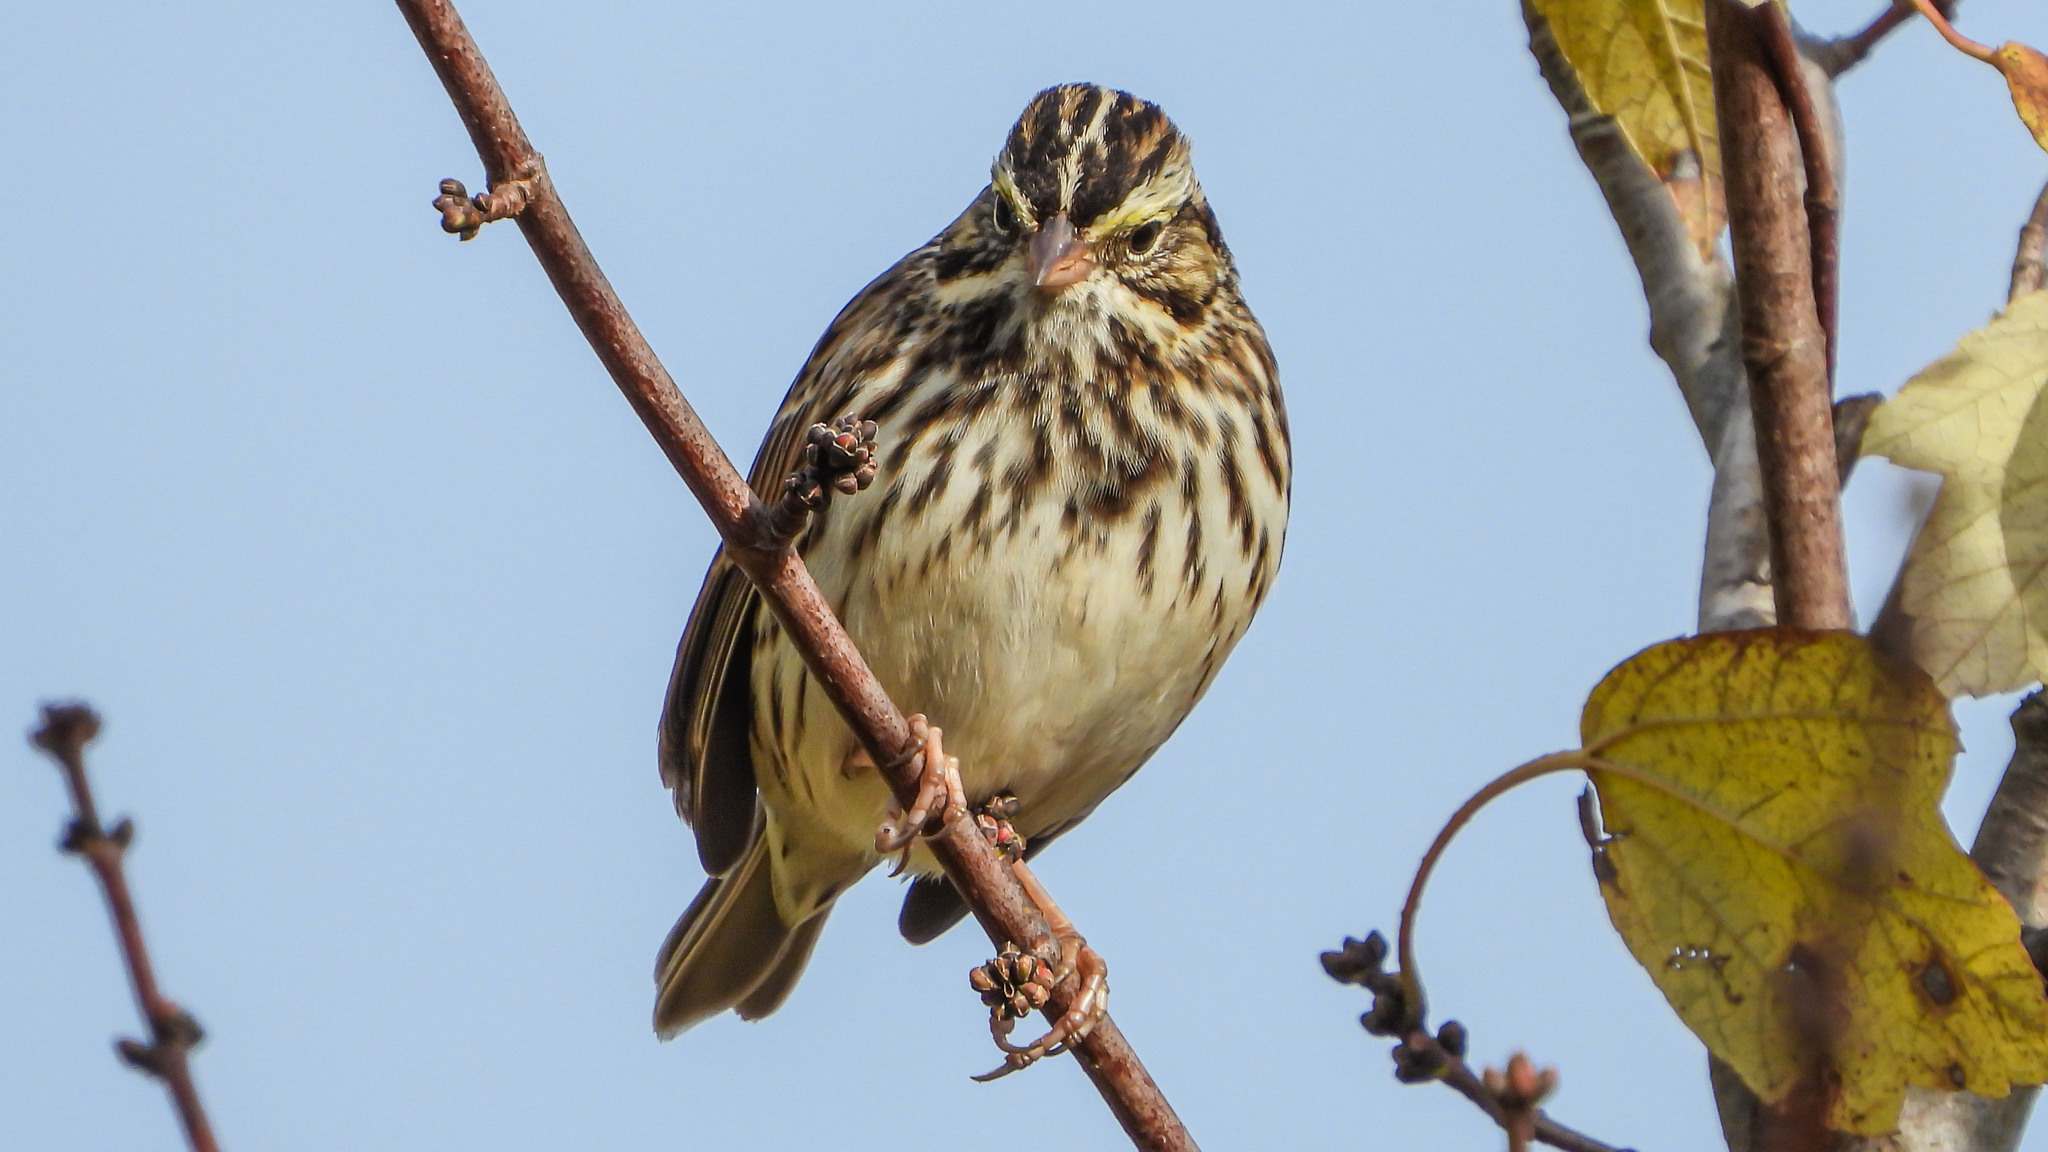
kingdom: Animalia
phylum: Chordata
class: Aves
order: Passeriformes
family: Passerellidae
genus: Passerculus
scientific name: Passerculus sandwichensis
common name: Savannah sparrow
